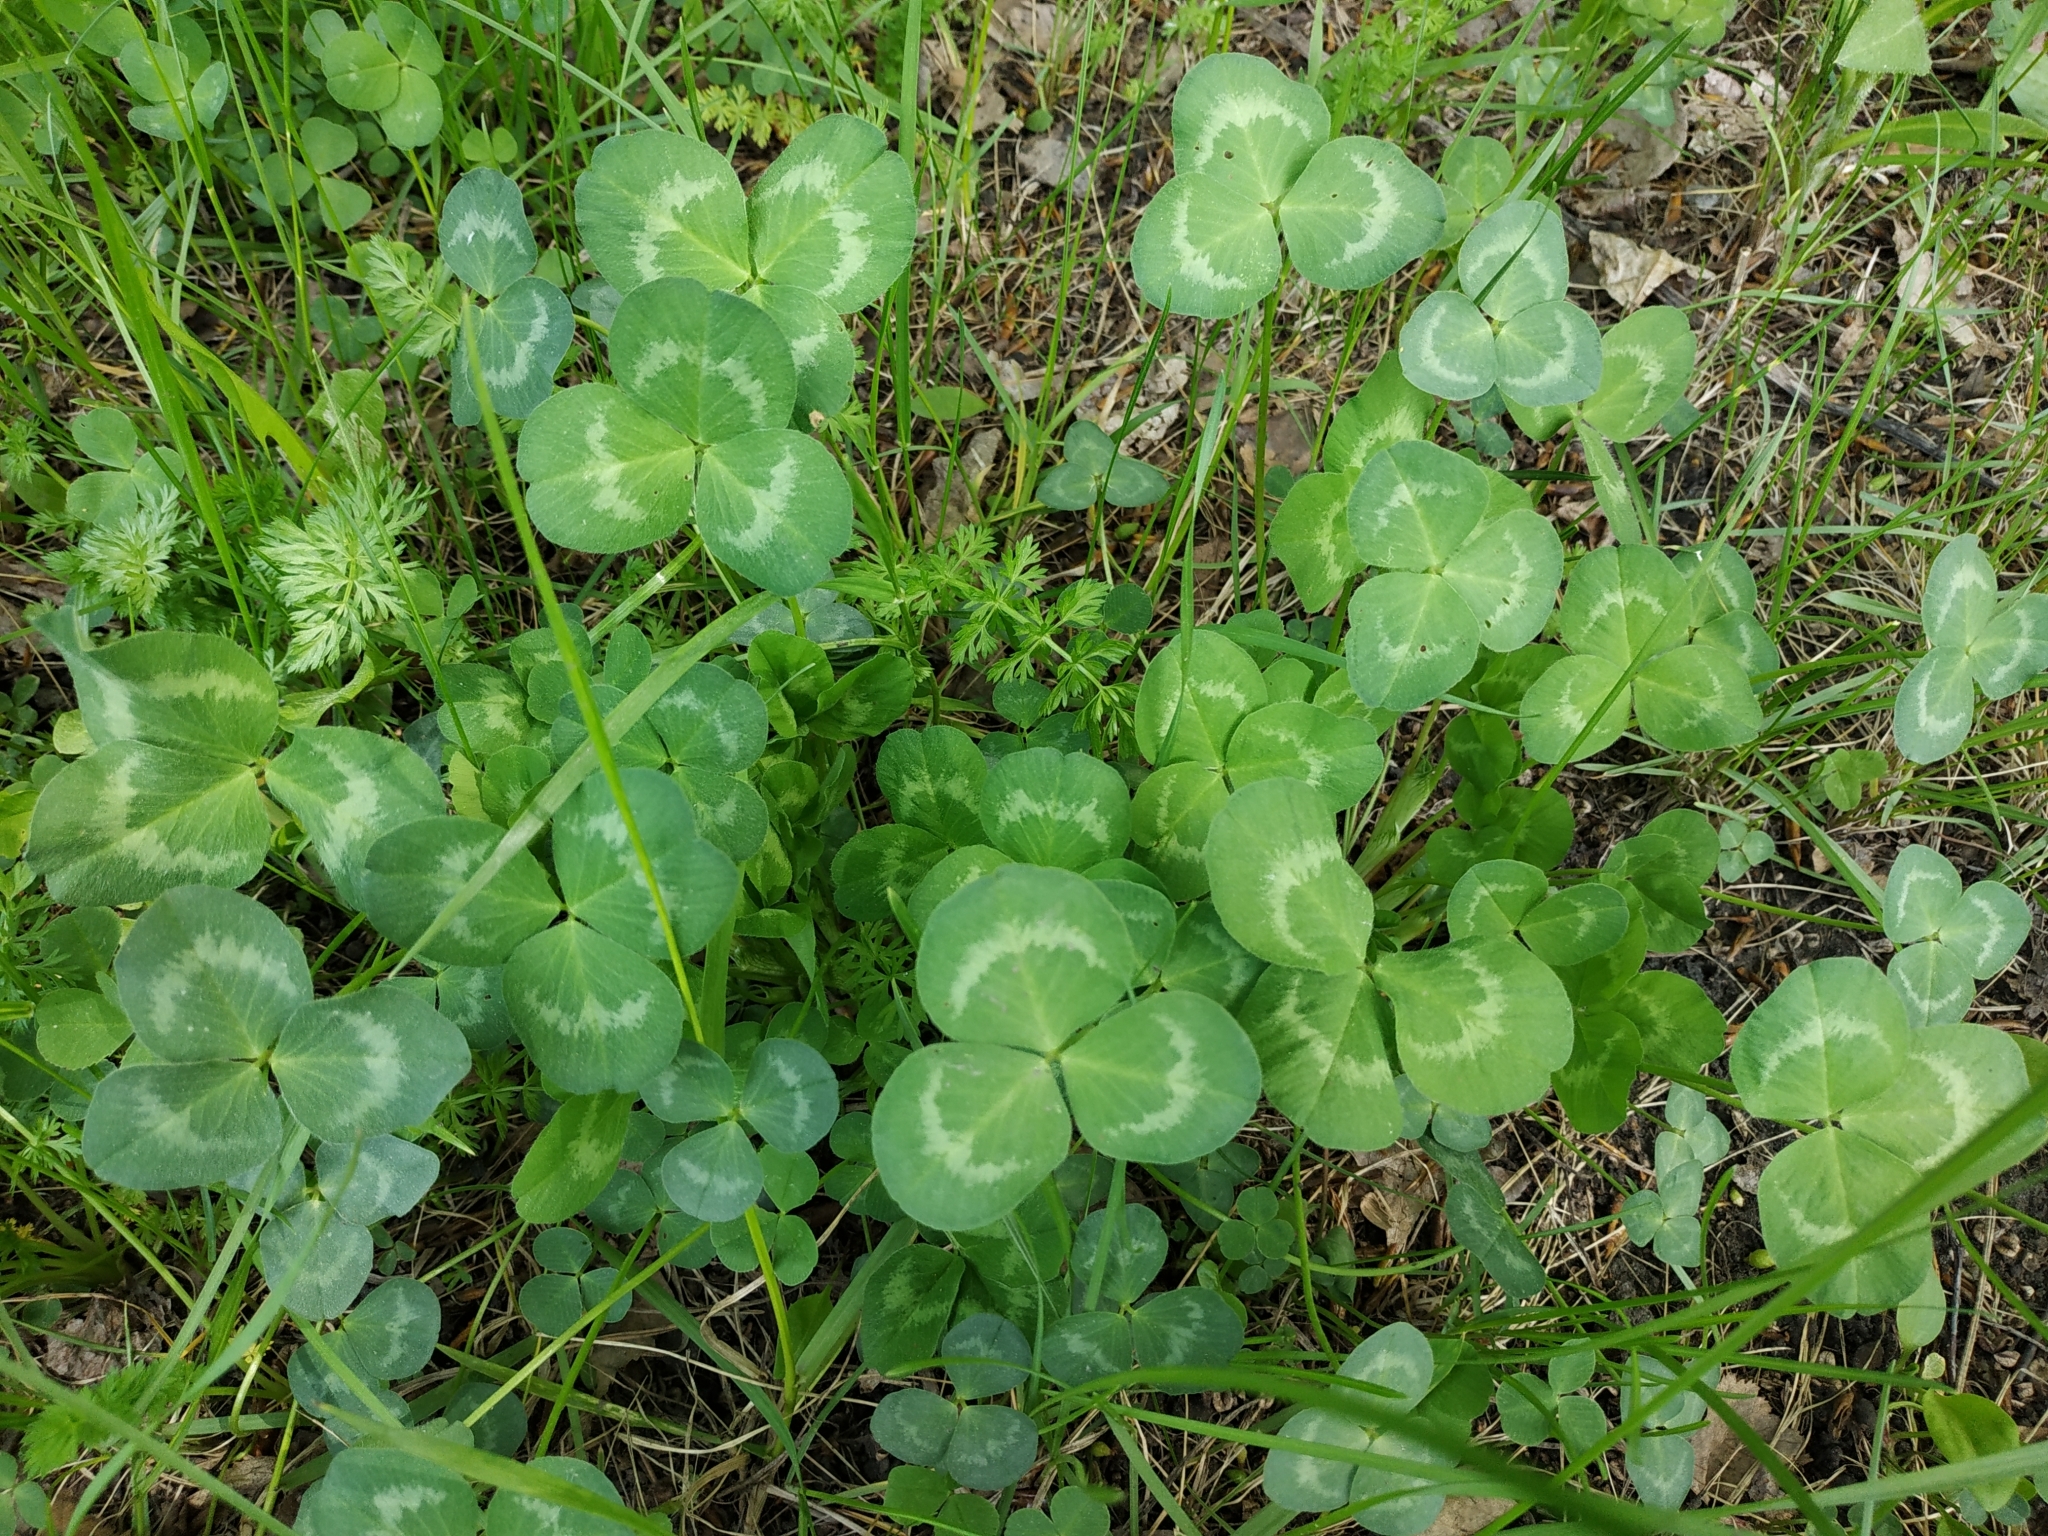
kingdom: Plantae
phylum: Tracheophyta
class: Magnoliopsida
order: Fabales
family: Fabaceae
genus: Trifolium
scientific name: Trifolium repens
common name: White clover
